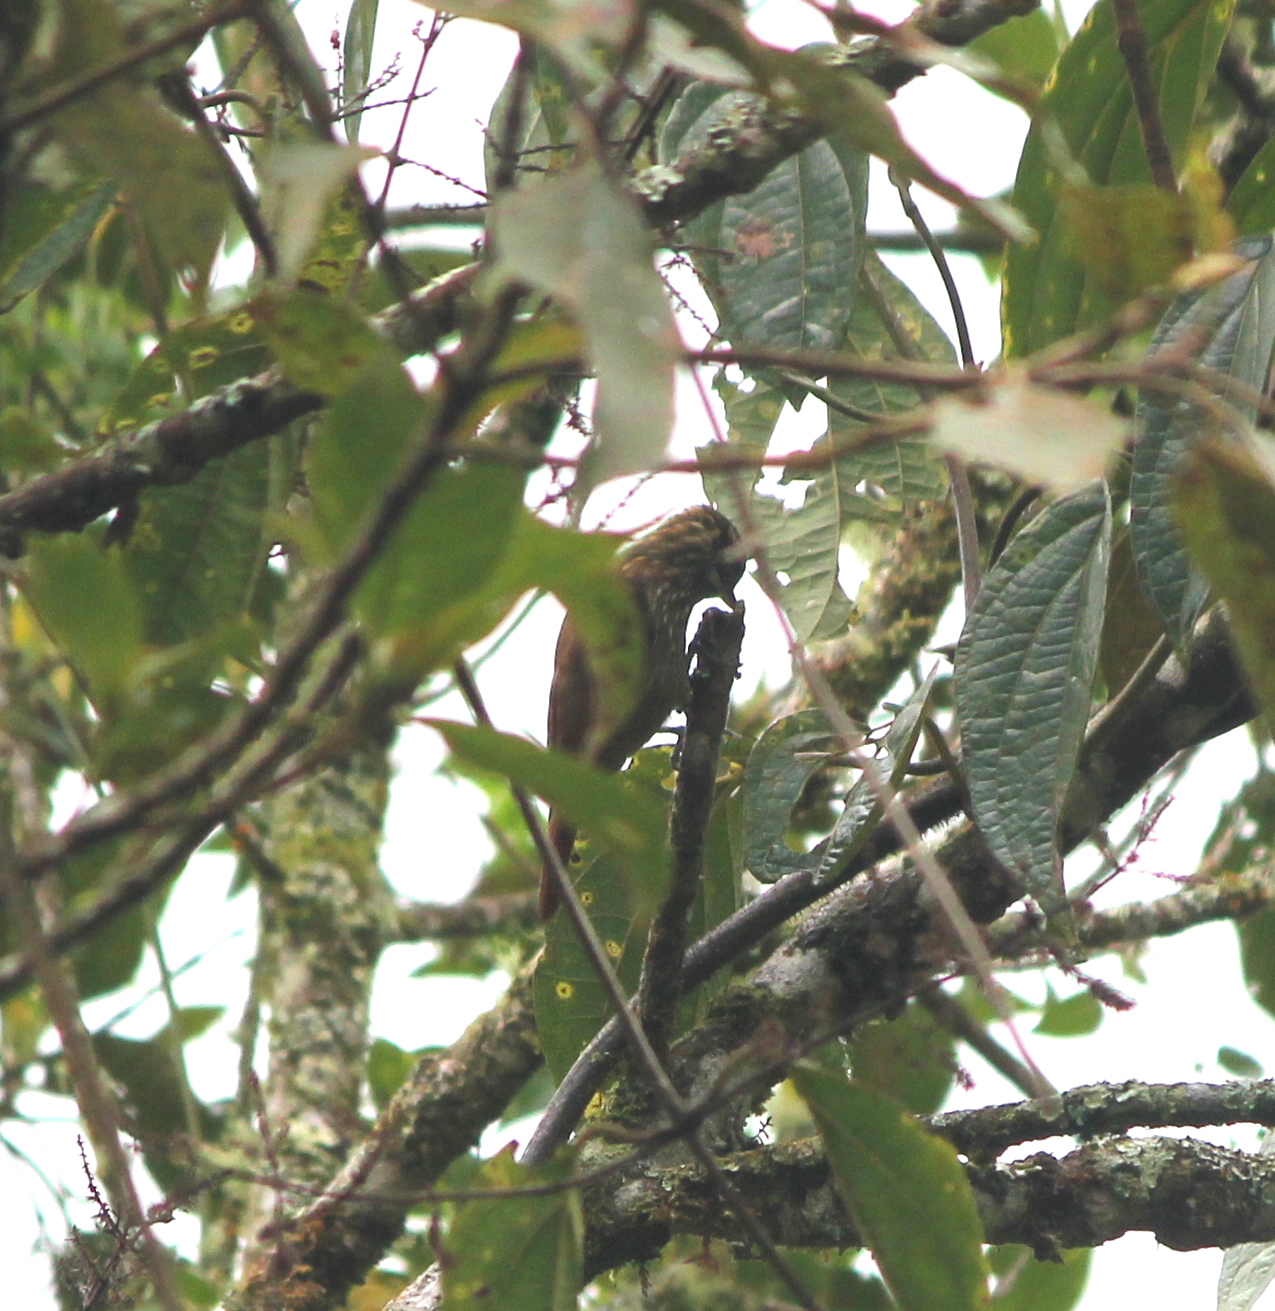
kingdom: Animalia
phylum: Chordata
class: Aves
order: Passeriformes
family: Furnariidae
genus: Xenops
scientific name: Xenops rutilans
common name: Streaked xenops
